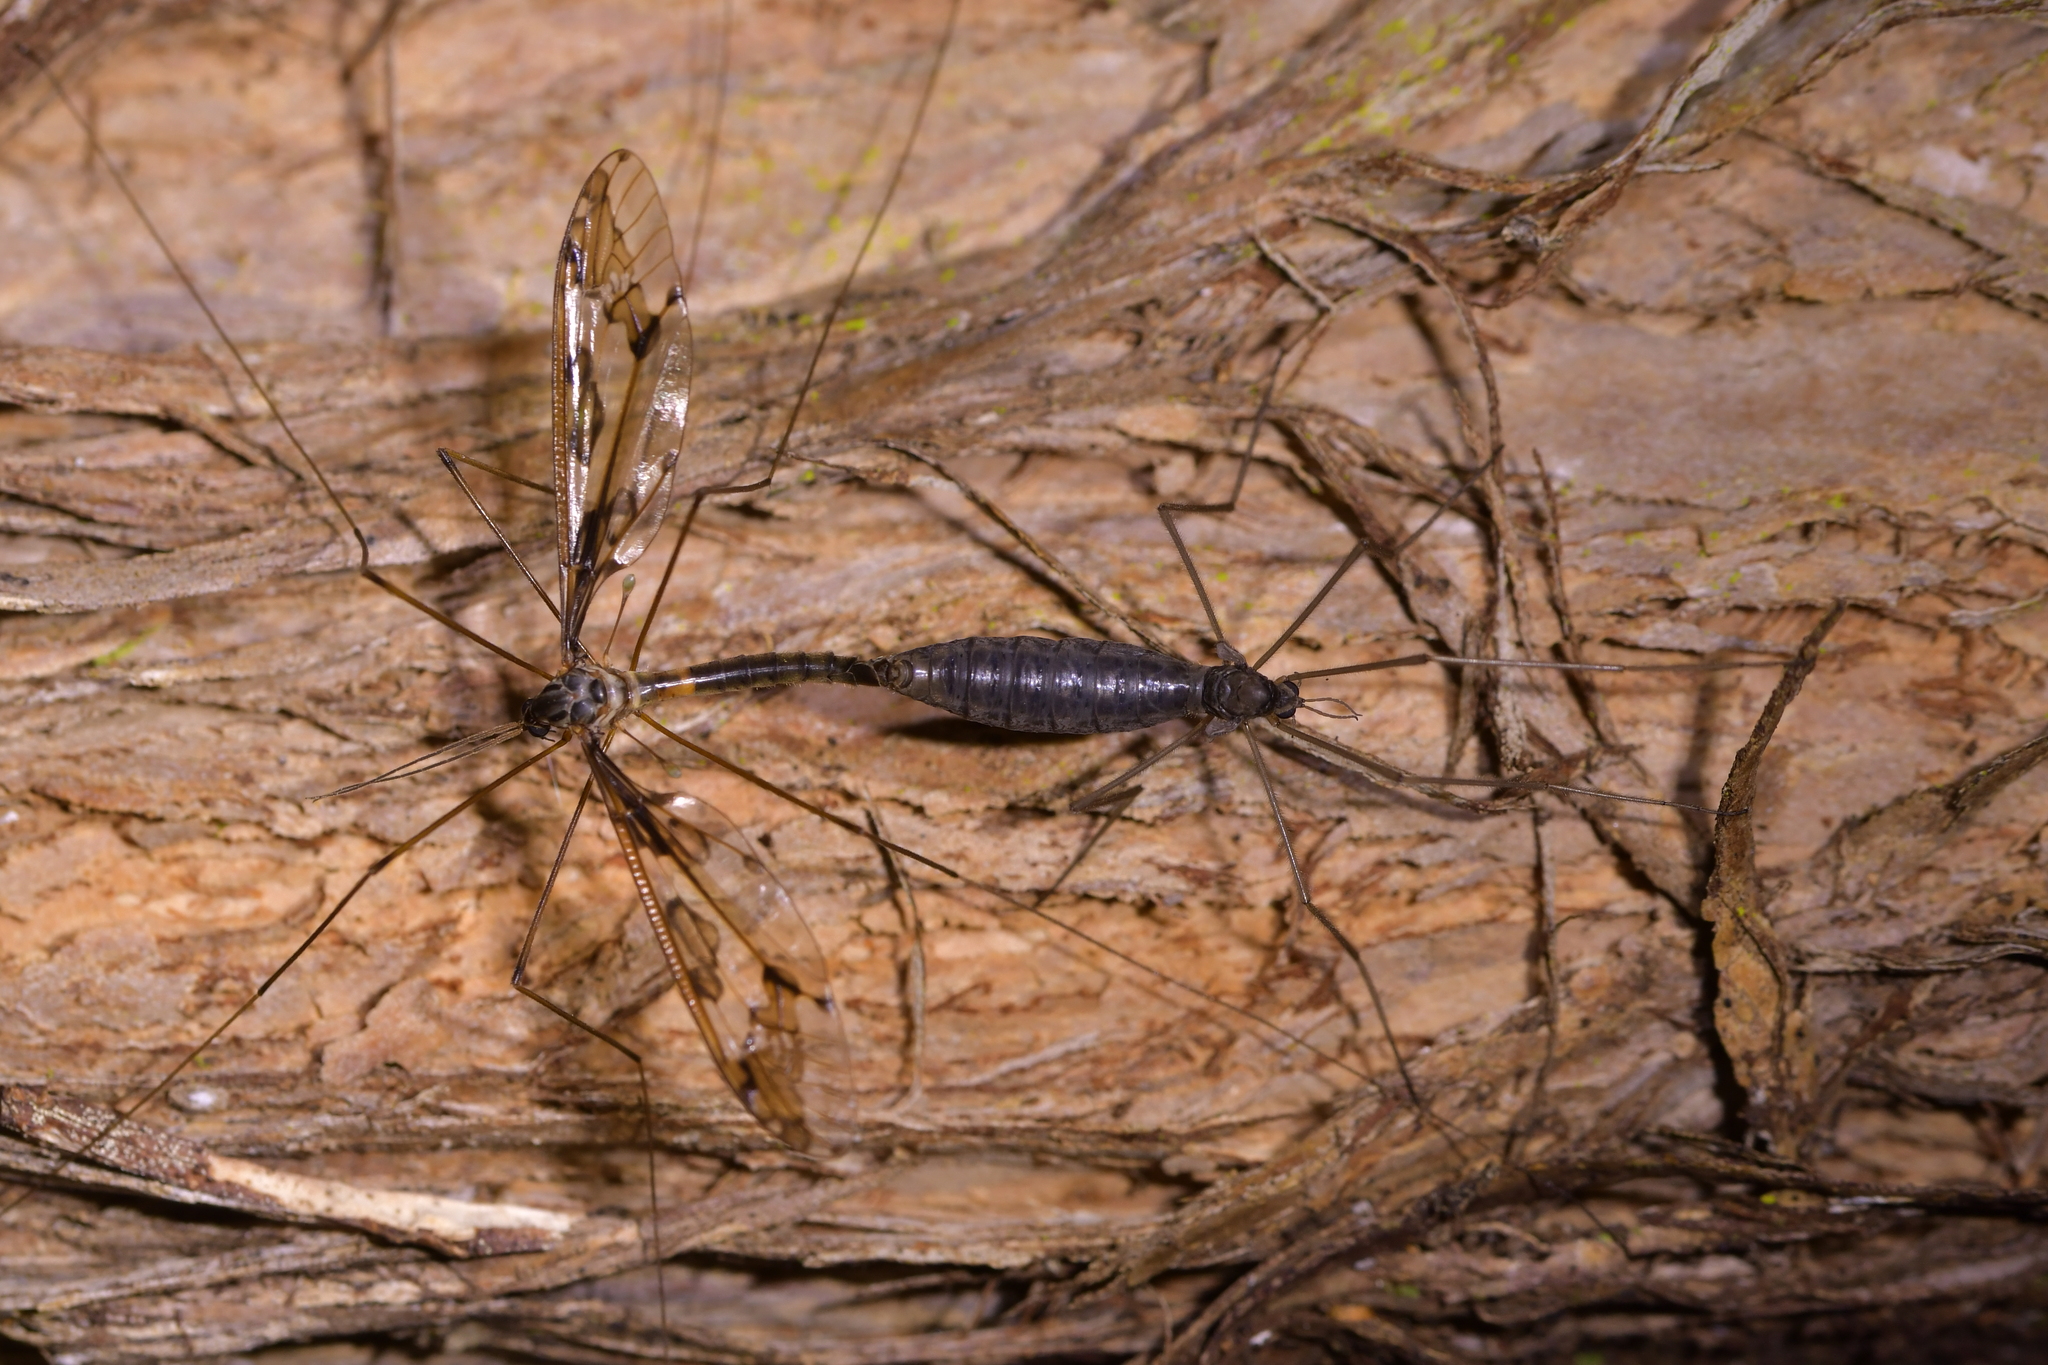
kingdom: Animalia
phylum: Arthropoda
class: Insecta
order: Diptera
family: Tipulidae
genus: Leptotarsus
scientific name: Leptotarsus binotatus
